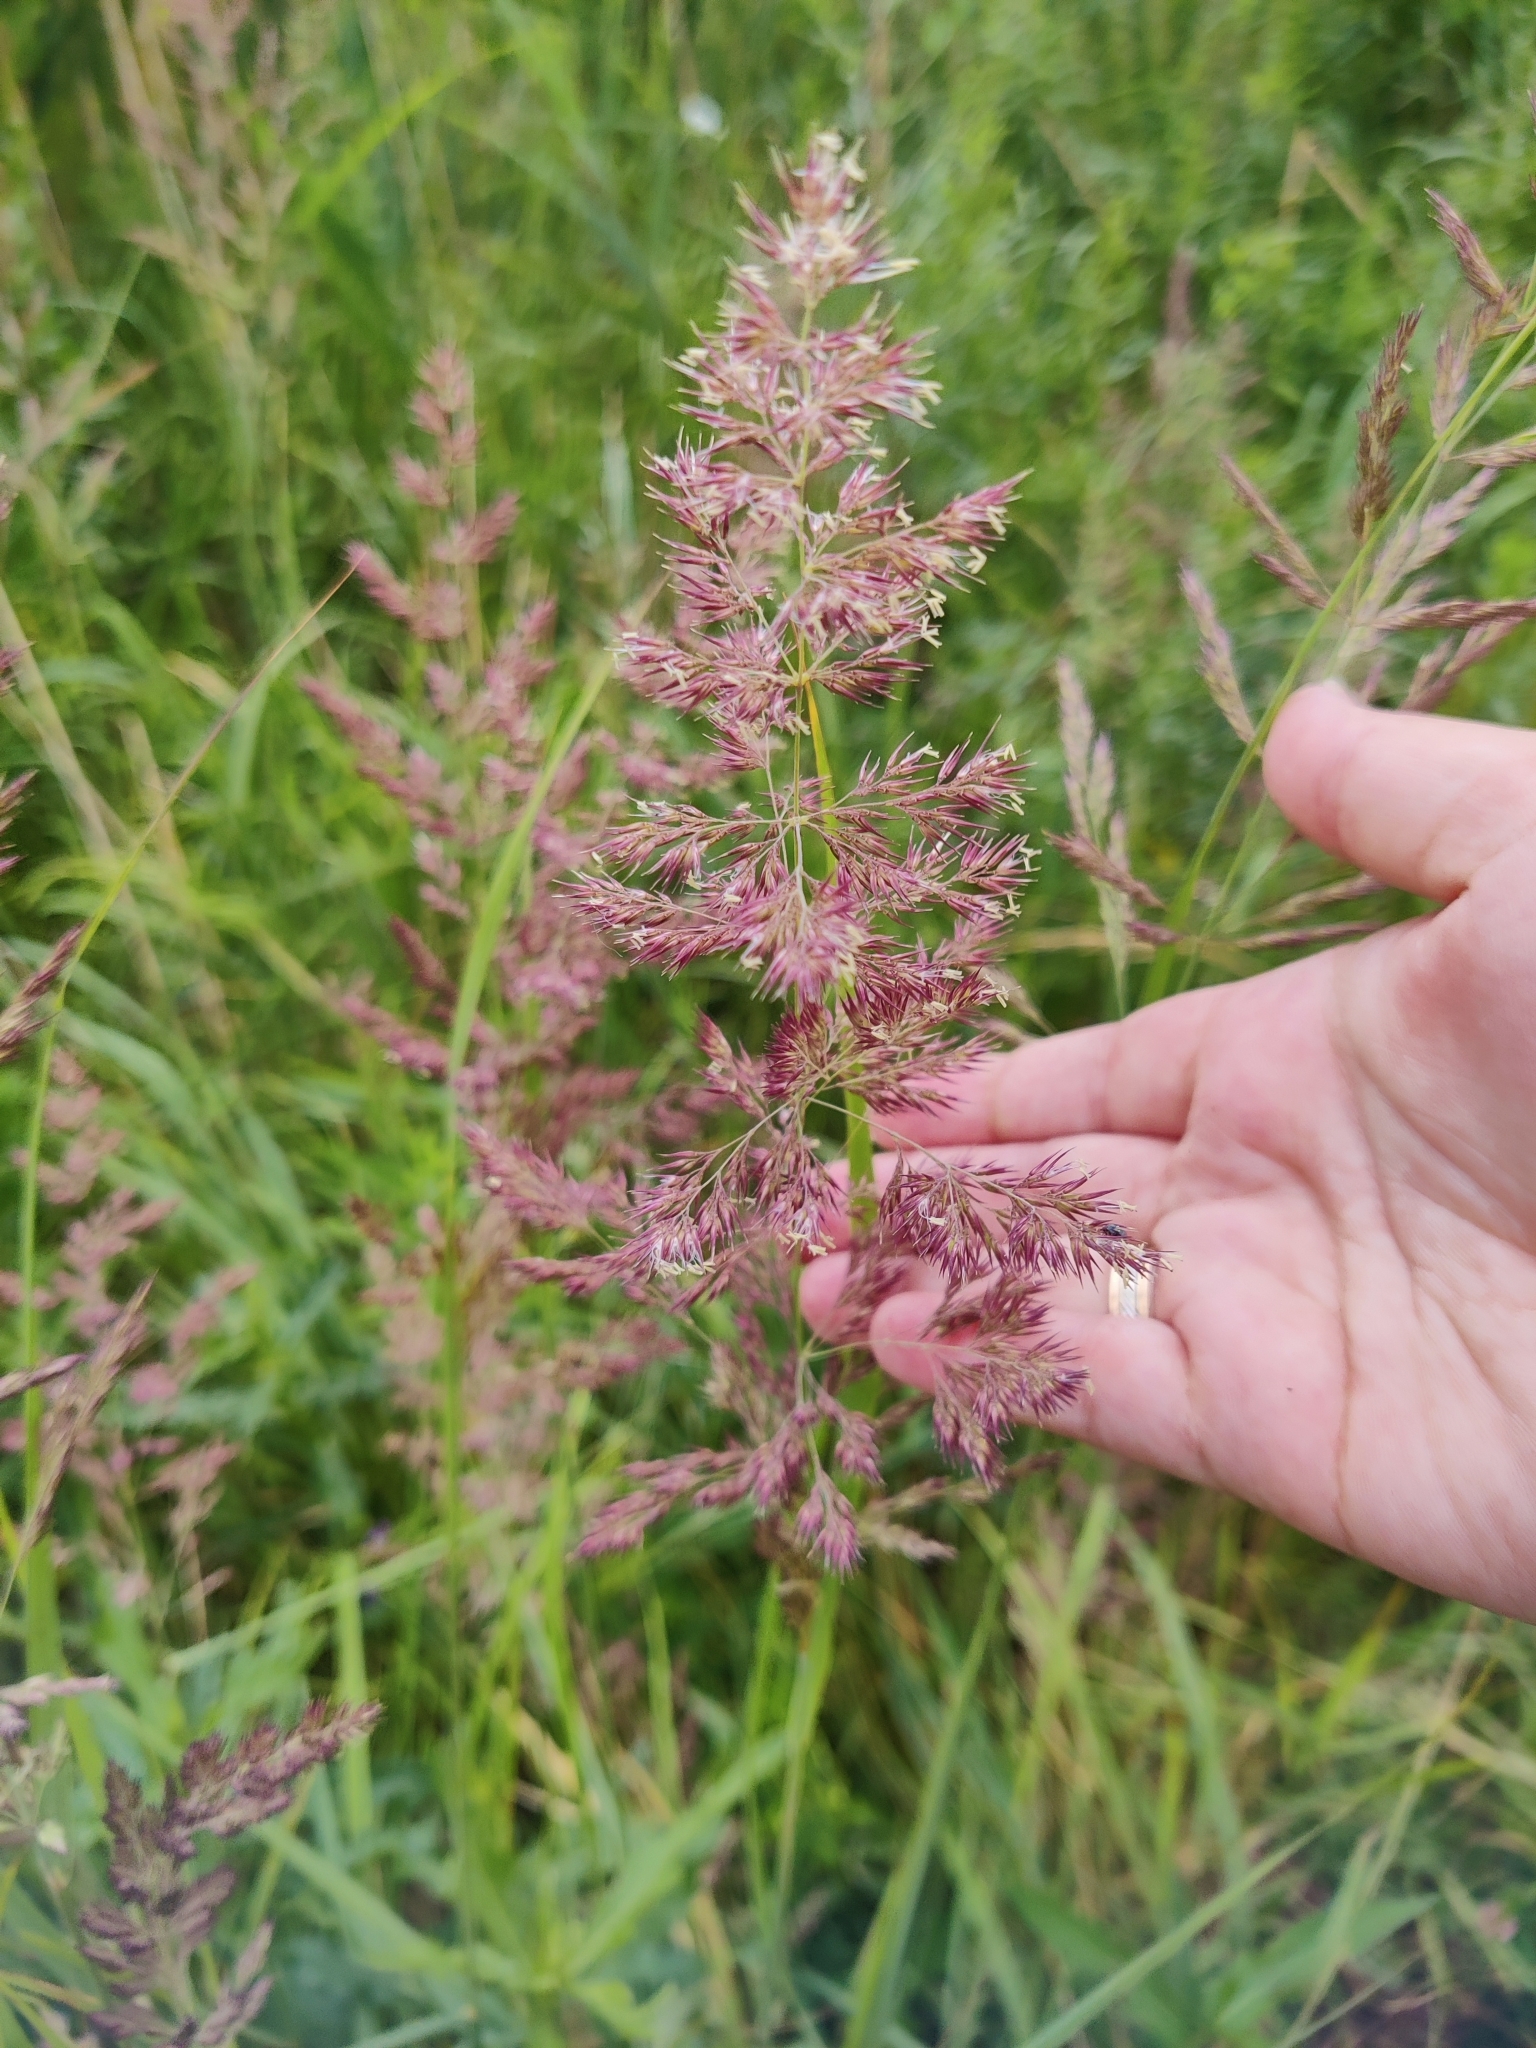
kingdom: Plantae
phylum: Tracheophyta
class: Liliopsida
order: Poales
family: Poaceae
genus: Calamagrostis
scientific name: Calamagrostis epigejos
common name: Wood small-reed
